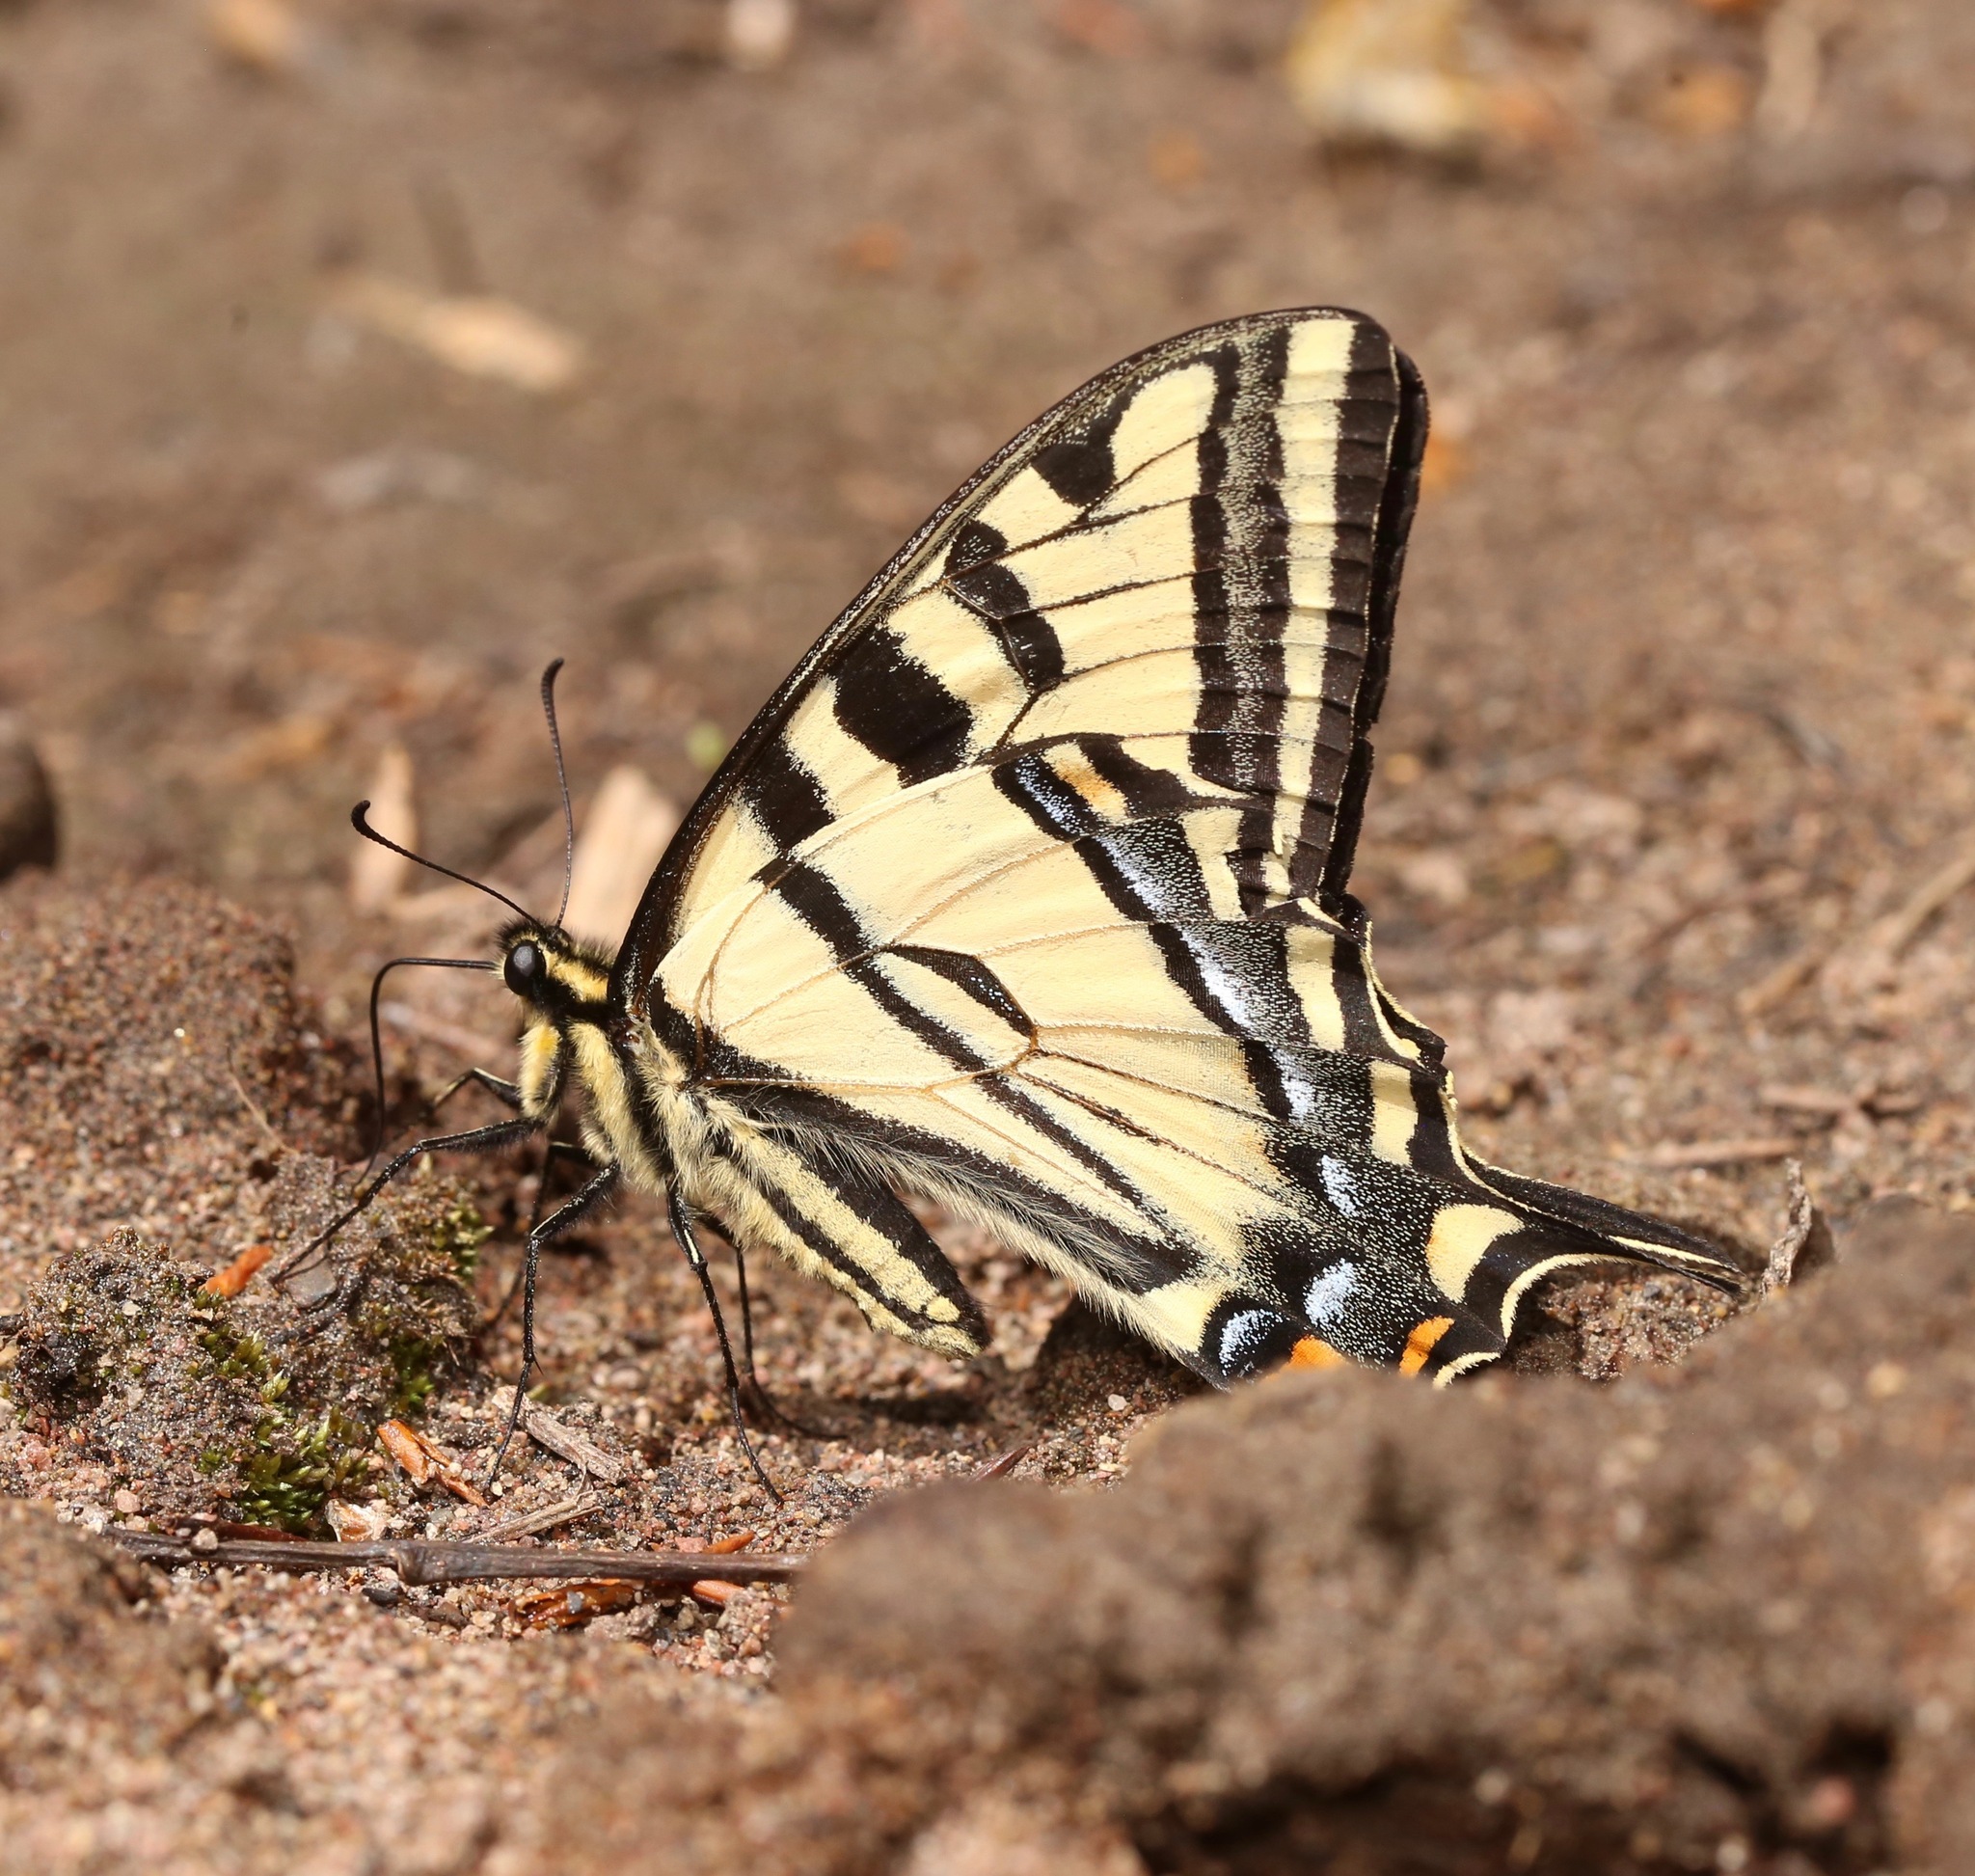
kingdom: Animalia
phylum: Arthropoda
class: Insecta
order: Lepidoptera
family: Papilionidae
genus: Papilio
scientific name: Papilio rutulus
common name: Western tiger swallowtail
